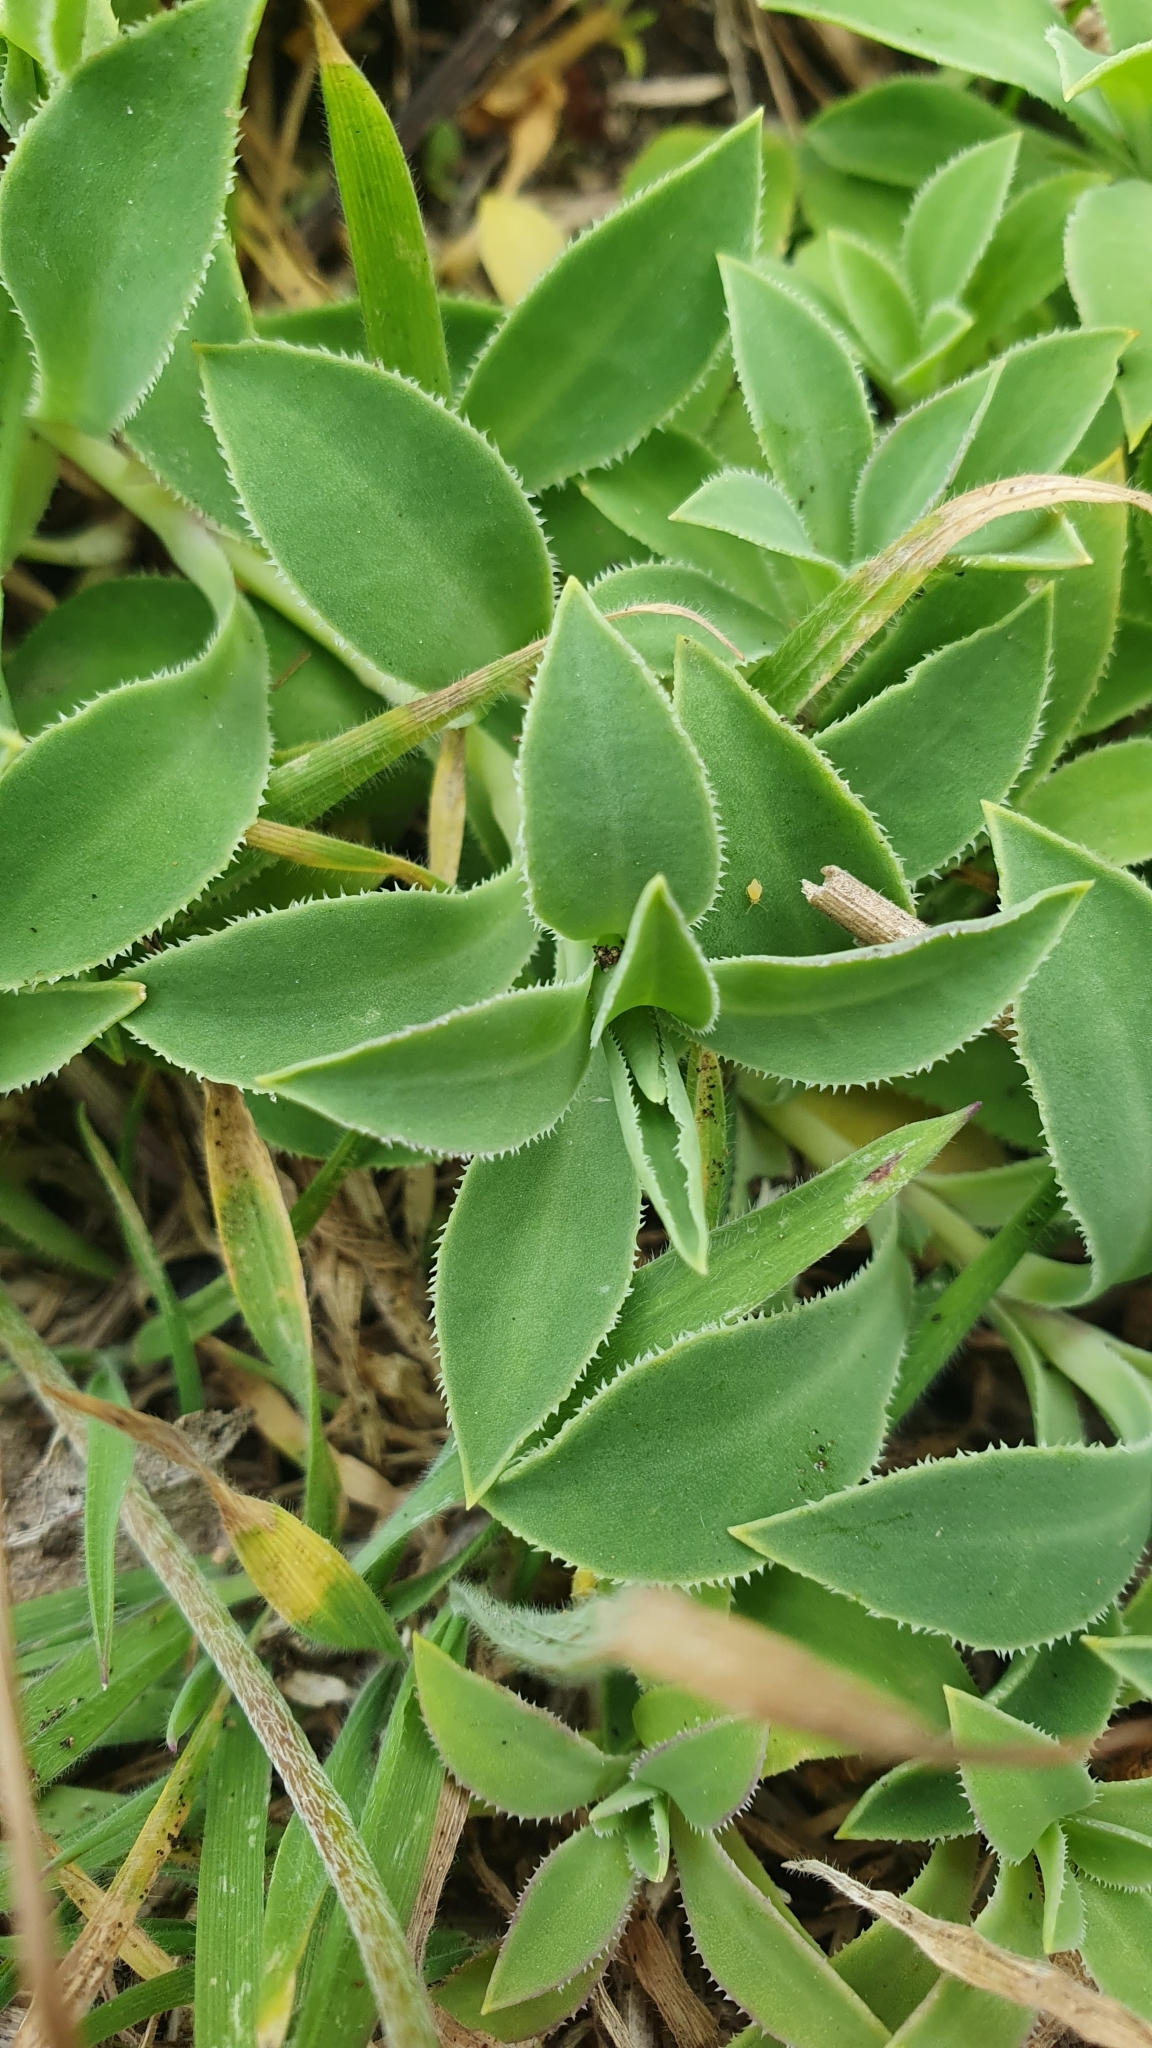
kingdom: Plantae
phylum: Tracheophyta
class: Magnoliopsida
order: Caryophyllales
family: Caryophyllaceae
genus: Silene
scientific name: Silene uniflora
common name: Sea campion
